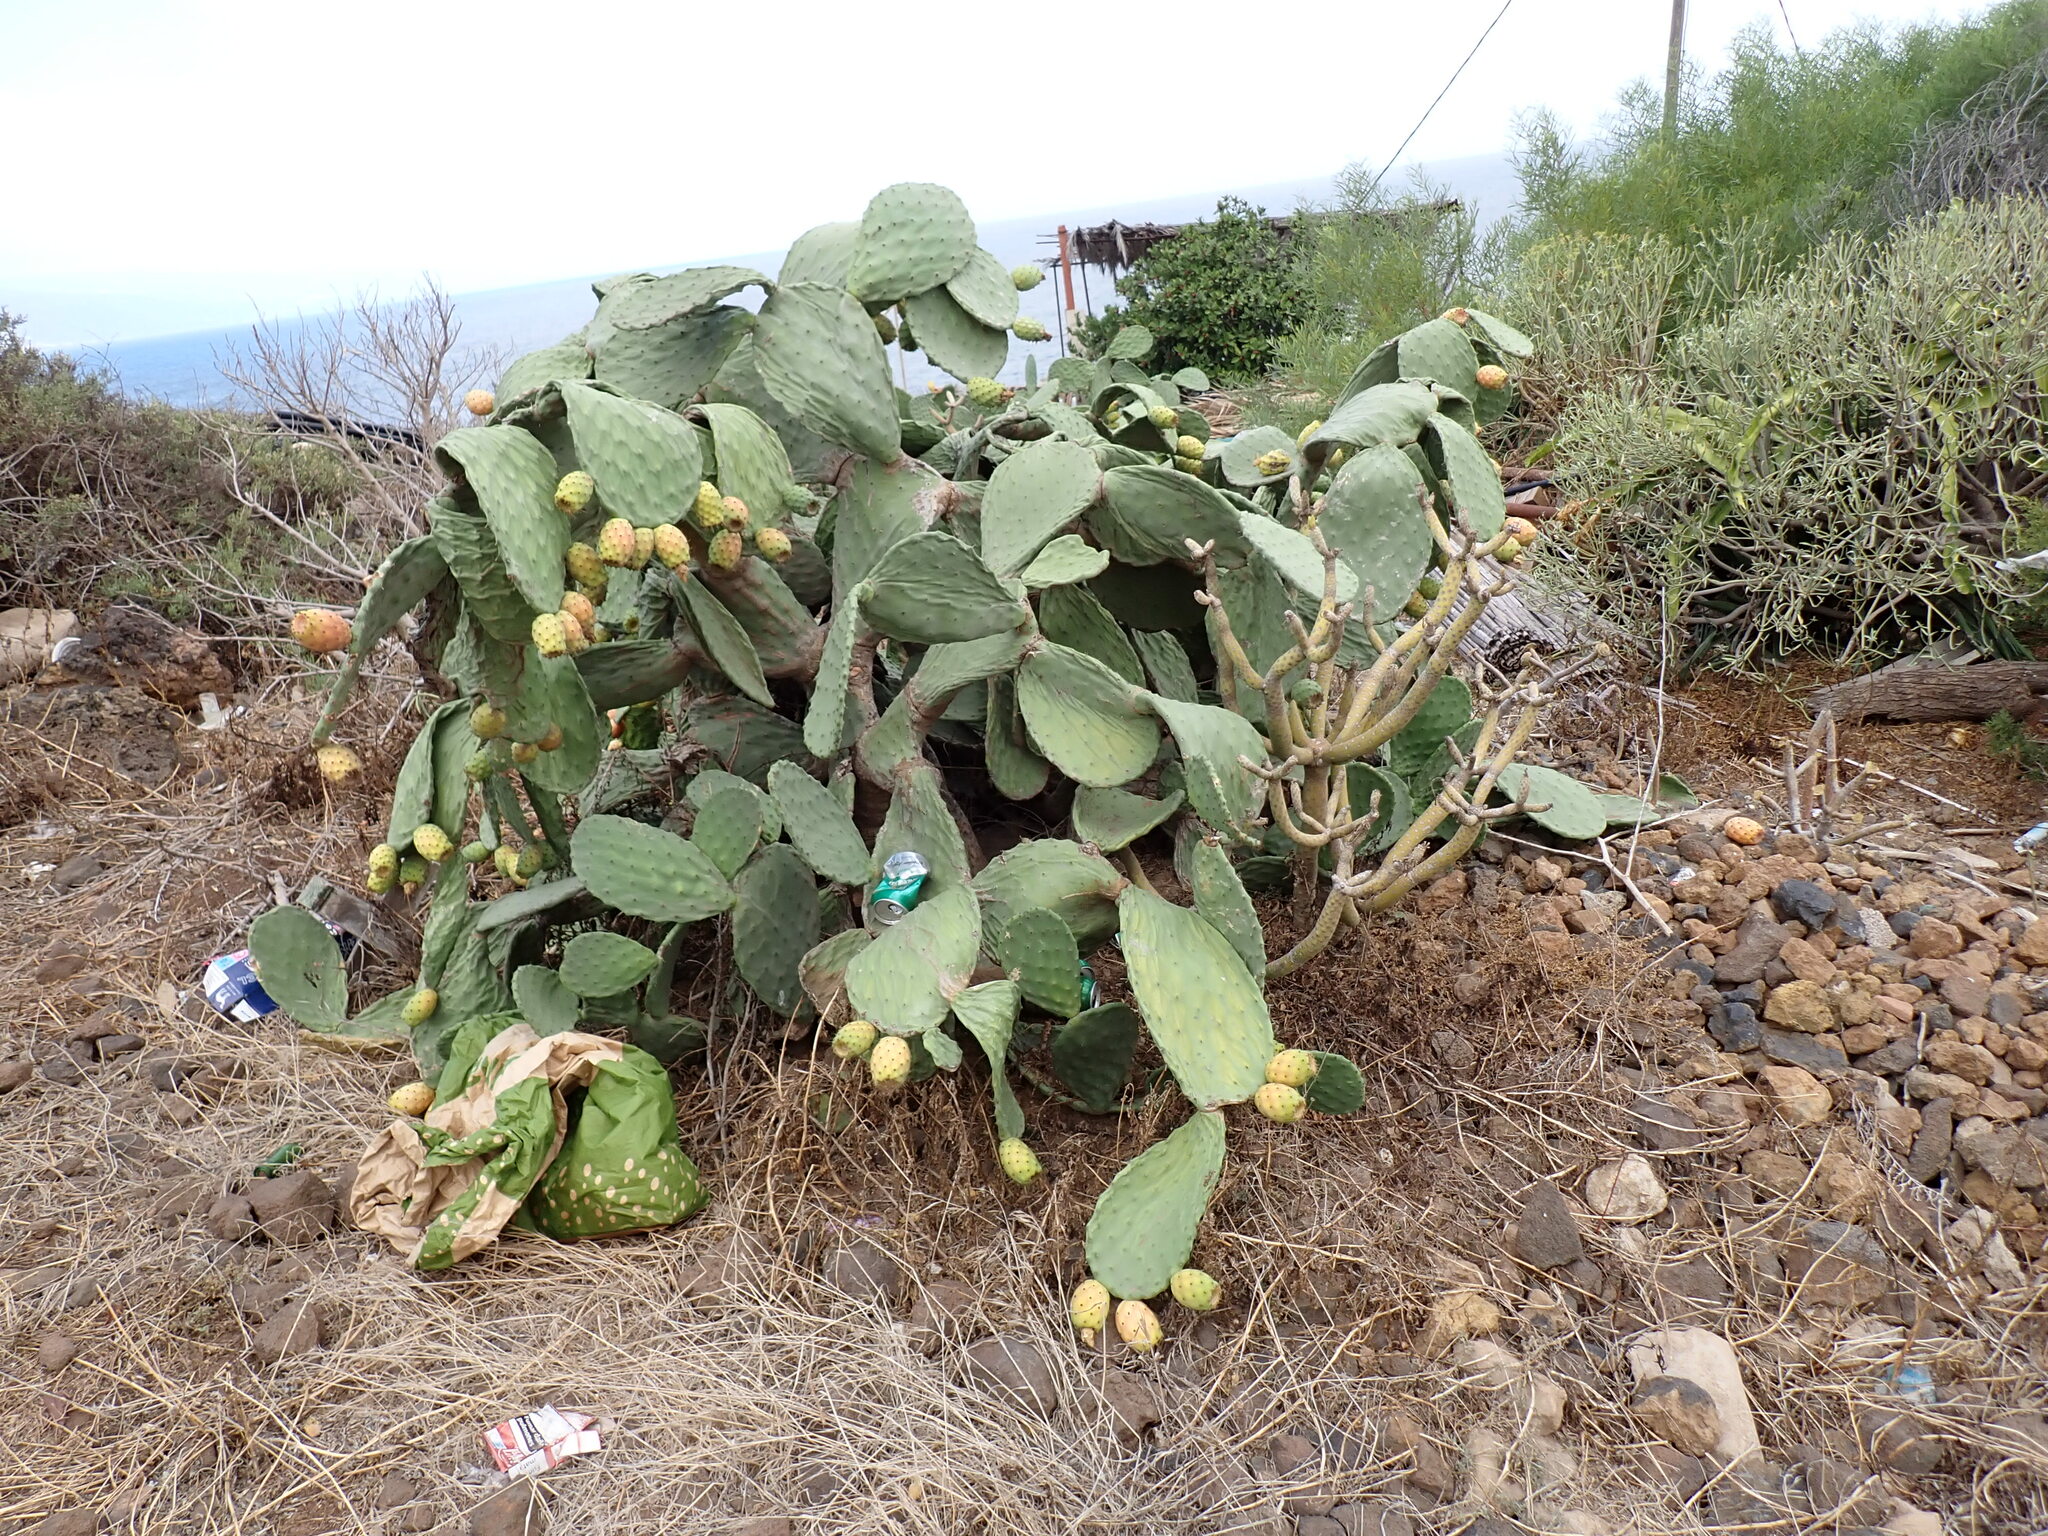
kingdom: Plantae
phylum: Tracheophyta
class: Magnoliopsida
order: Caryophyllales
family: Cactaceae
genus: Opuntia
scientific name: Opuntia ficus-indica
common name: Barbary fig
